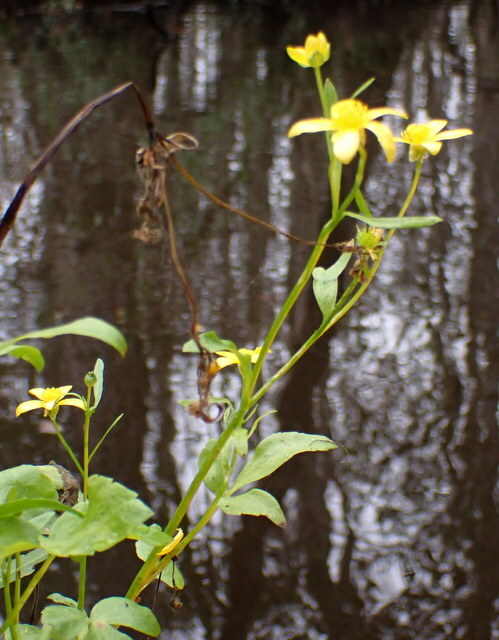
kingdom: Plantae
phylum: Tracheophyta
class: Magnoliopsida
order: Ranunculales
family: Ranunculaceae
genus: Ranunculus
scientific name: Ranunculus hispidus
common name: Bristly buttercup
